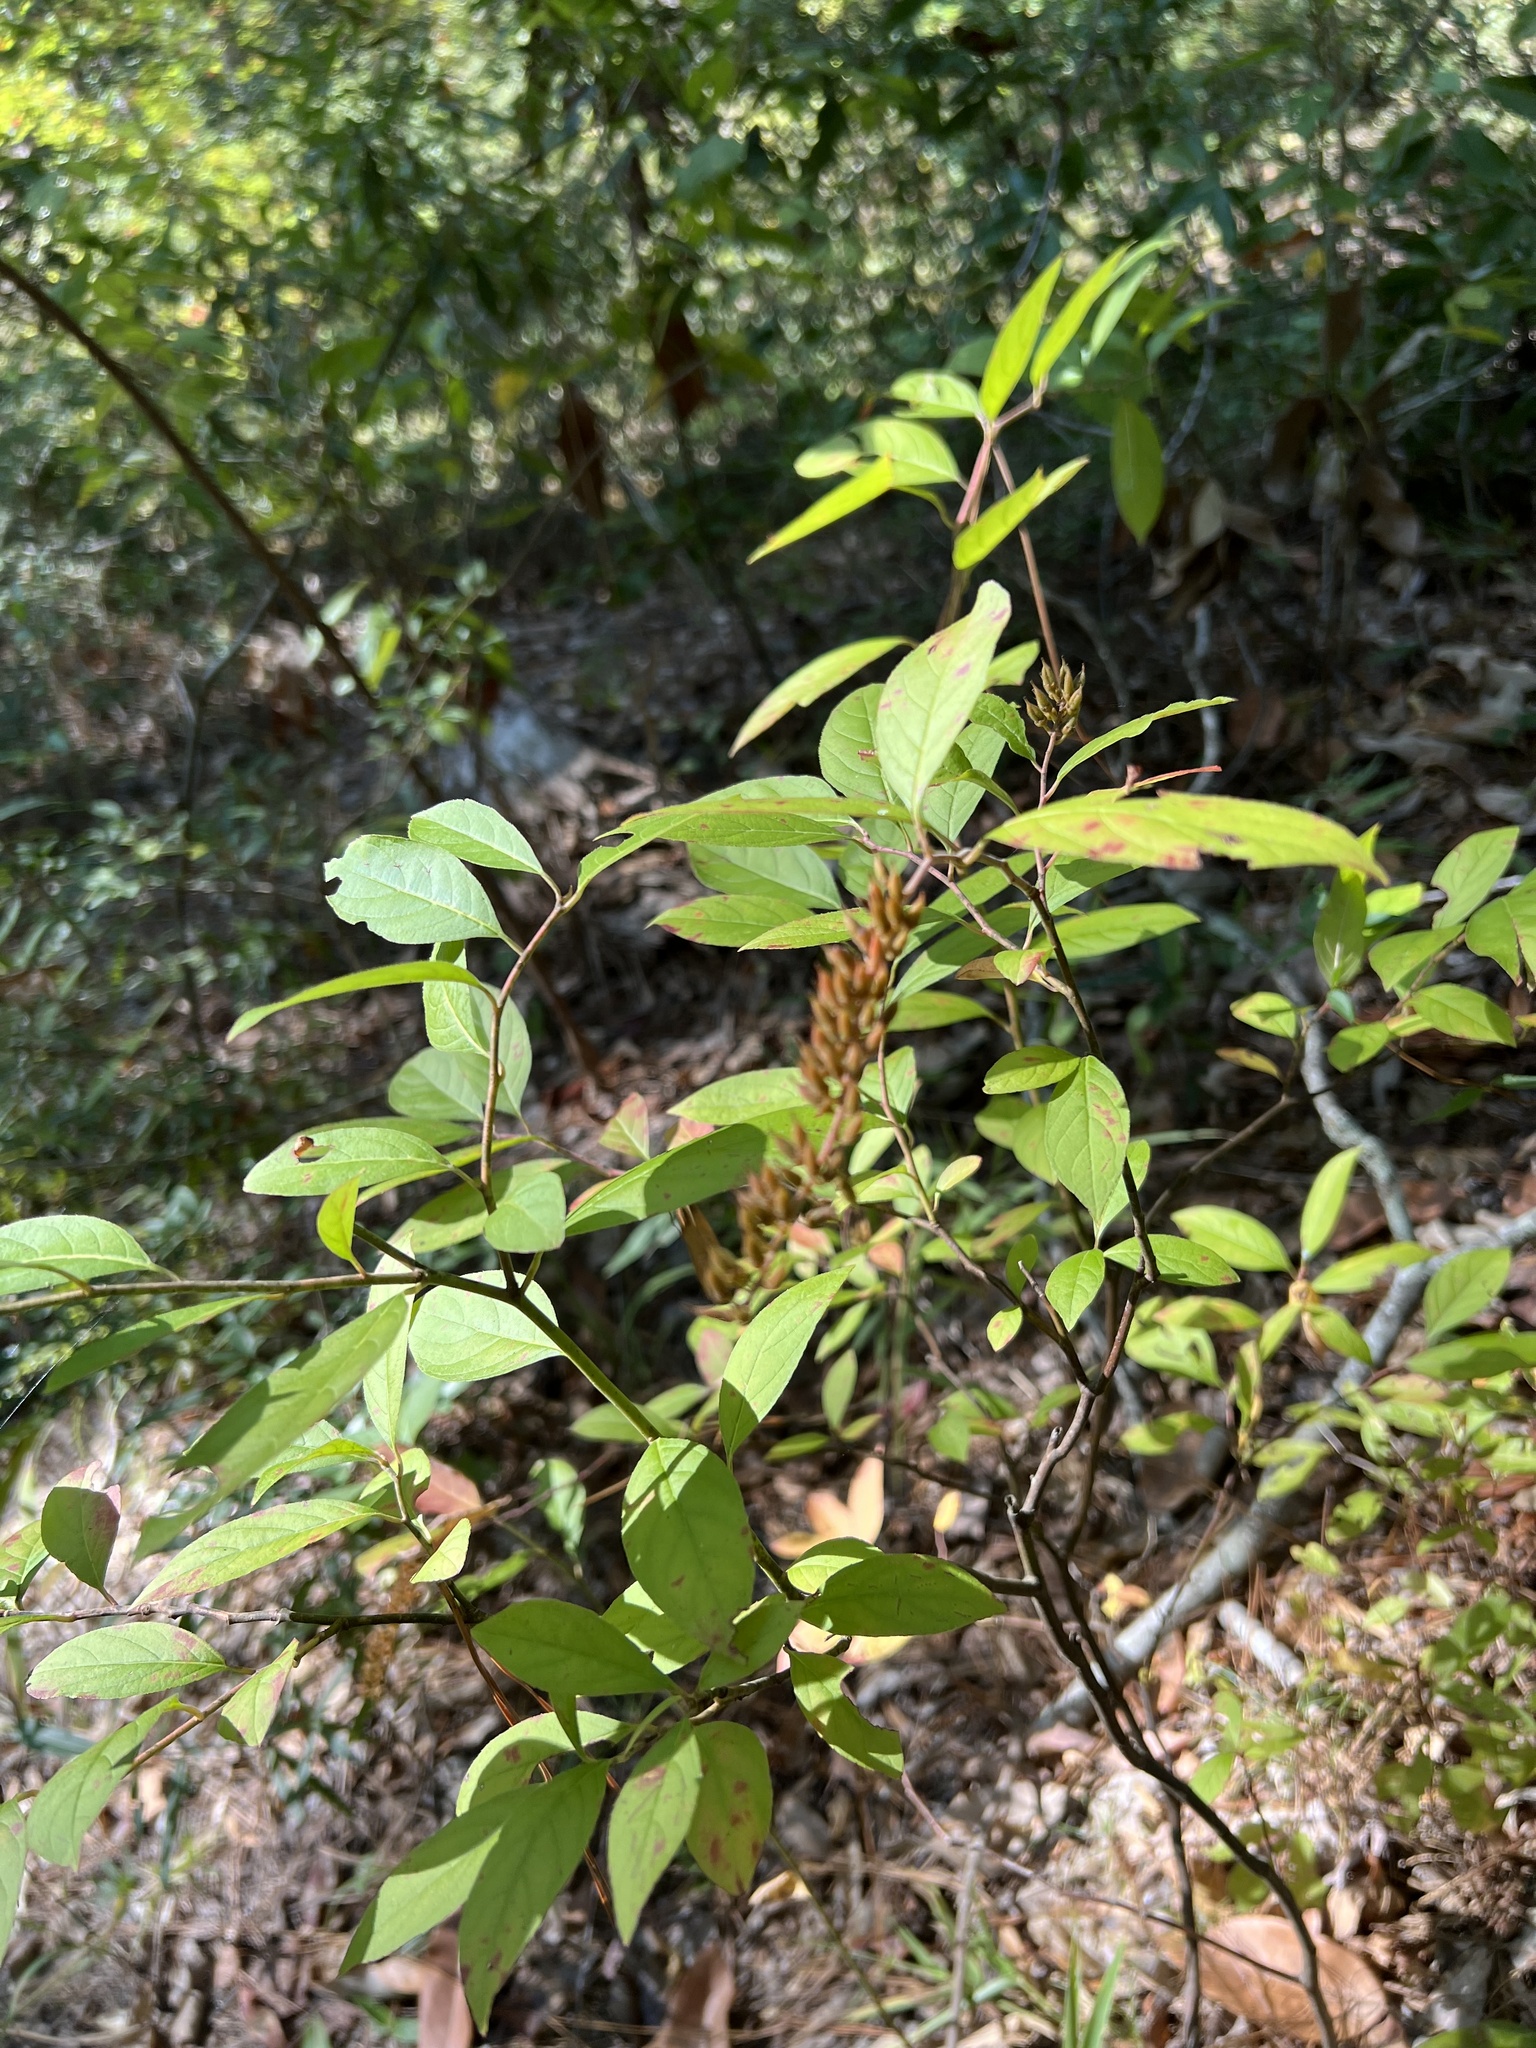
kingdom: Plantae
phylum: Tracheophyta
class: Magnoliopsida
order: Saxifragales
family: Iteaceae
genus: Itea
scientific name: Itea virginica
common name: Sweetspire
